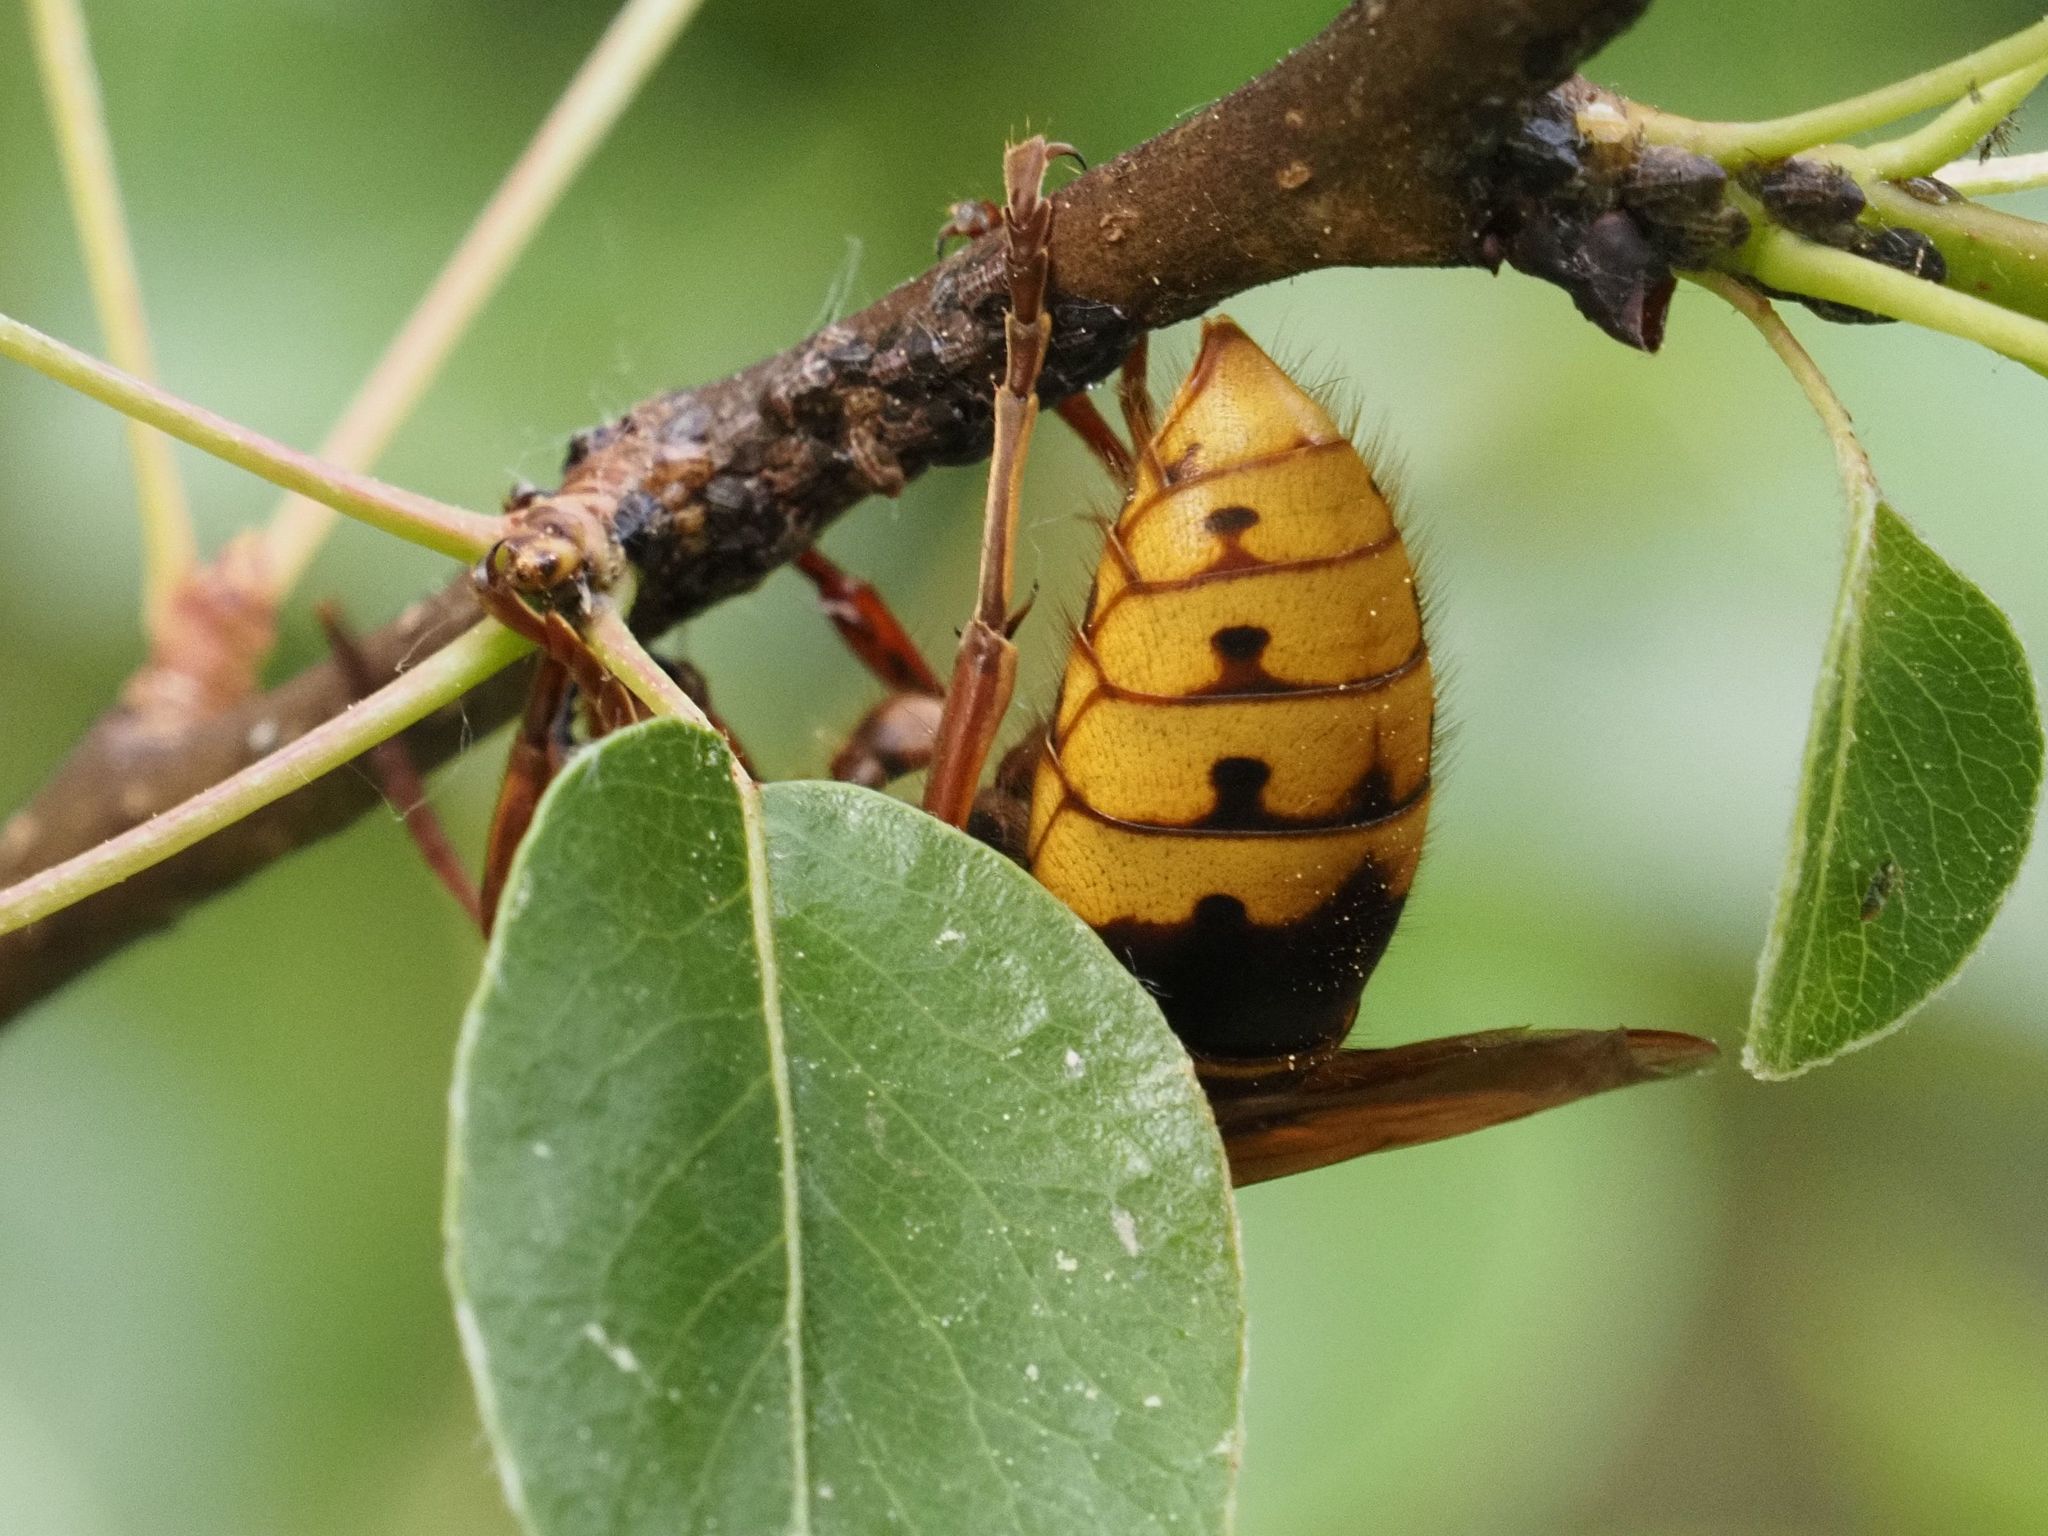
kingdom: Animalia
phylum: Arthropoda
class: Insecta
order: Hymenoptera
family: Vespidae
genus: Vespa
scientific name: Vespa crabro
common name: Hornet
